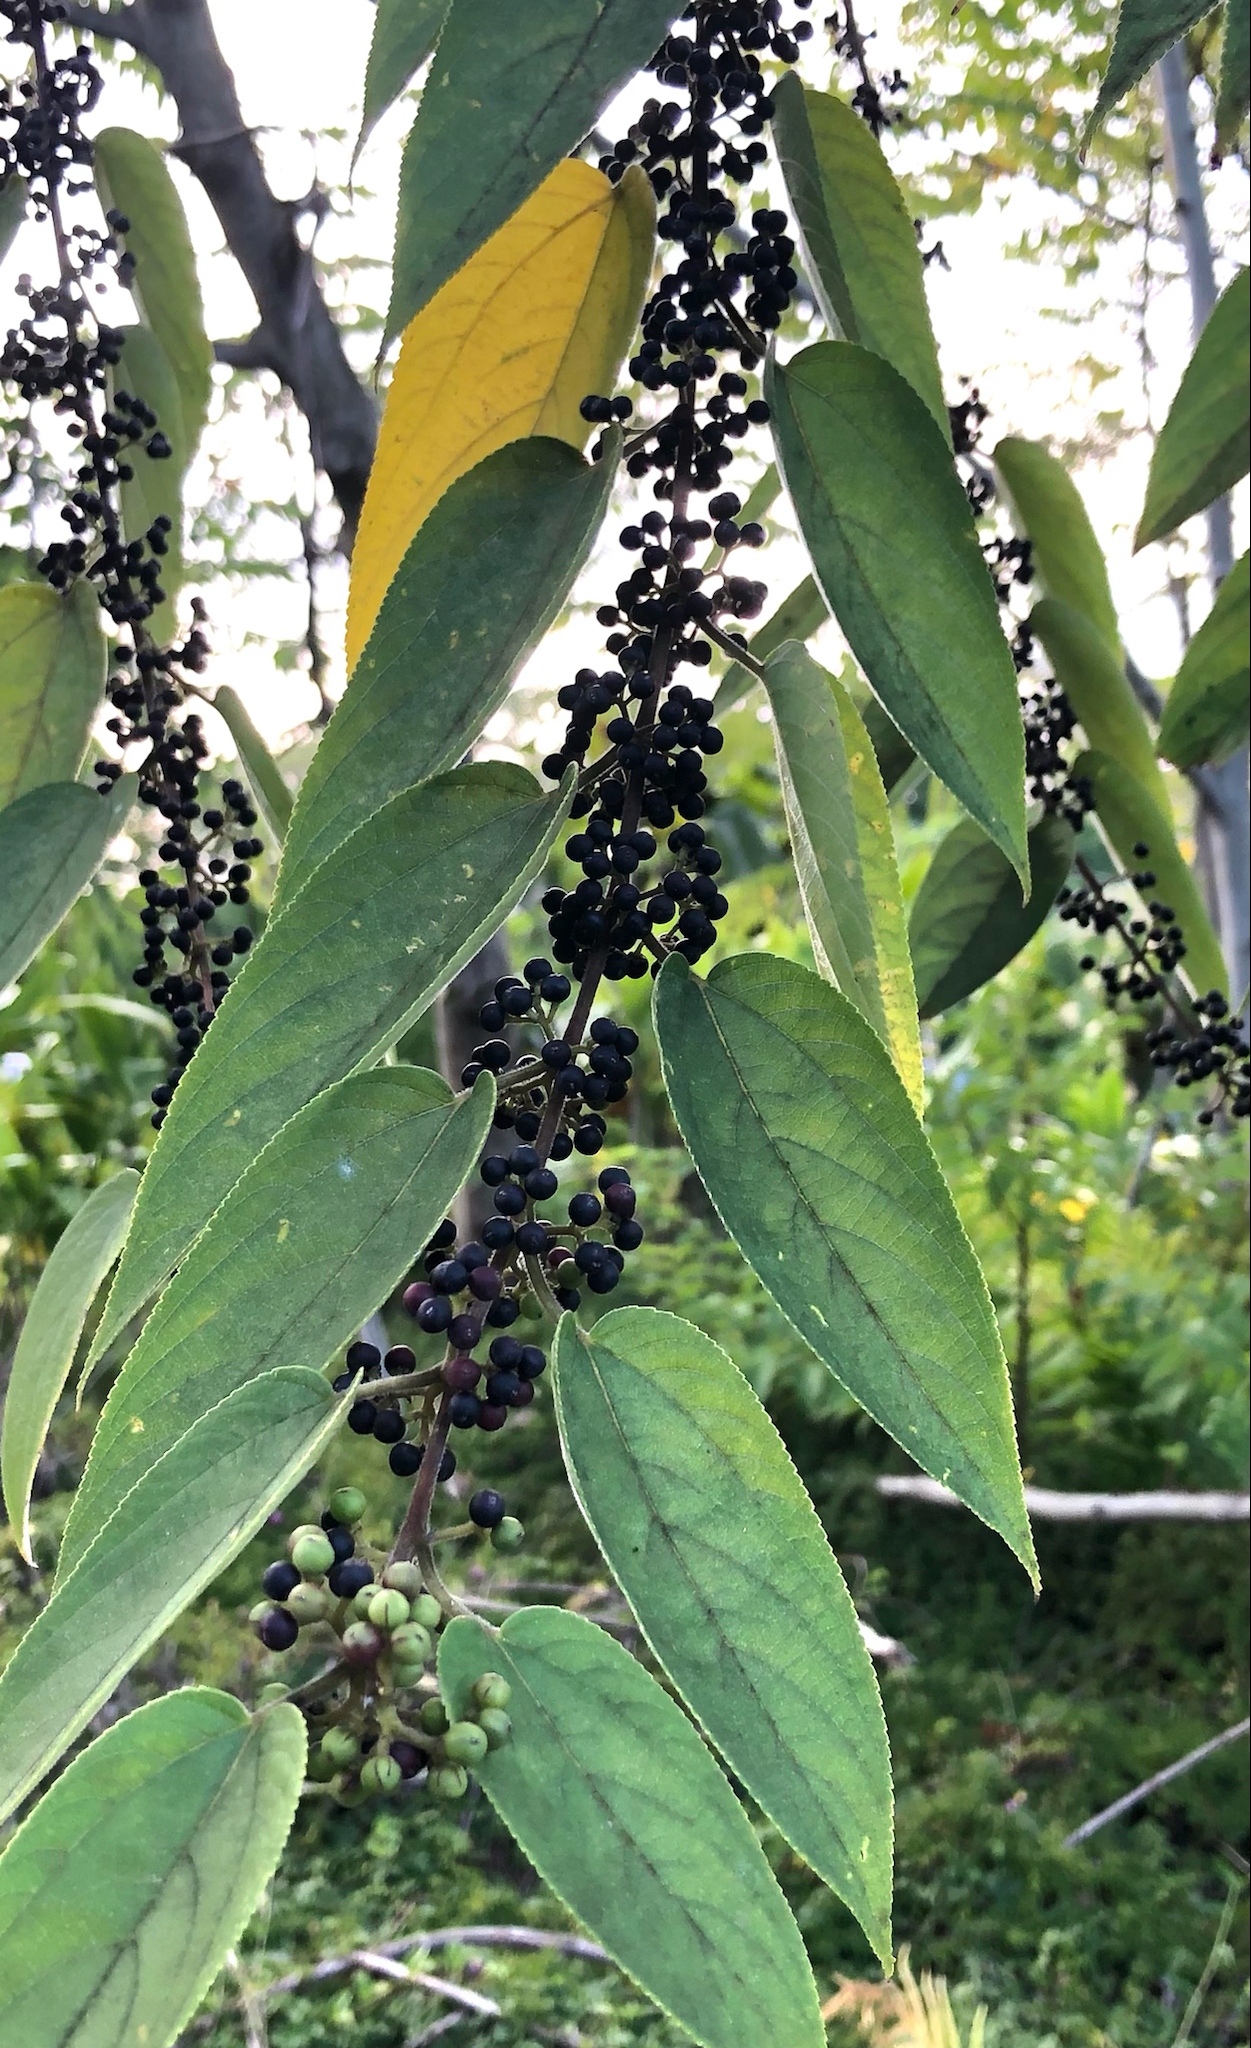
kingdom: Plantae
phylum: Tracheophyta
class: Magnoliopsida
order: Rosales
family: Cannabaceae
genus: Trema
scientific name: Trema orientale
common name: Indian charcoal tree
